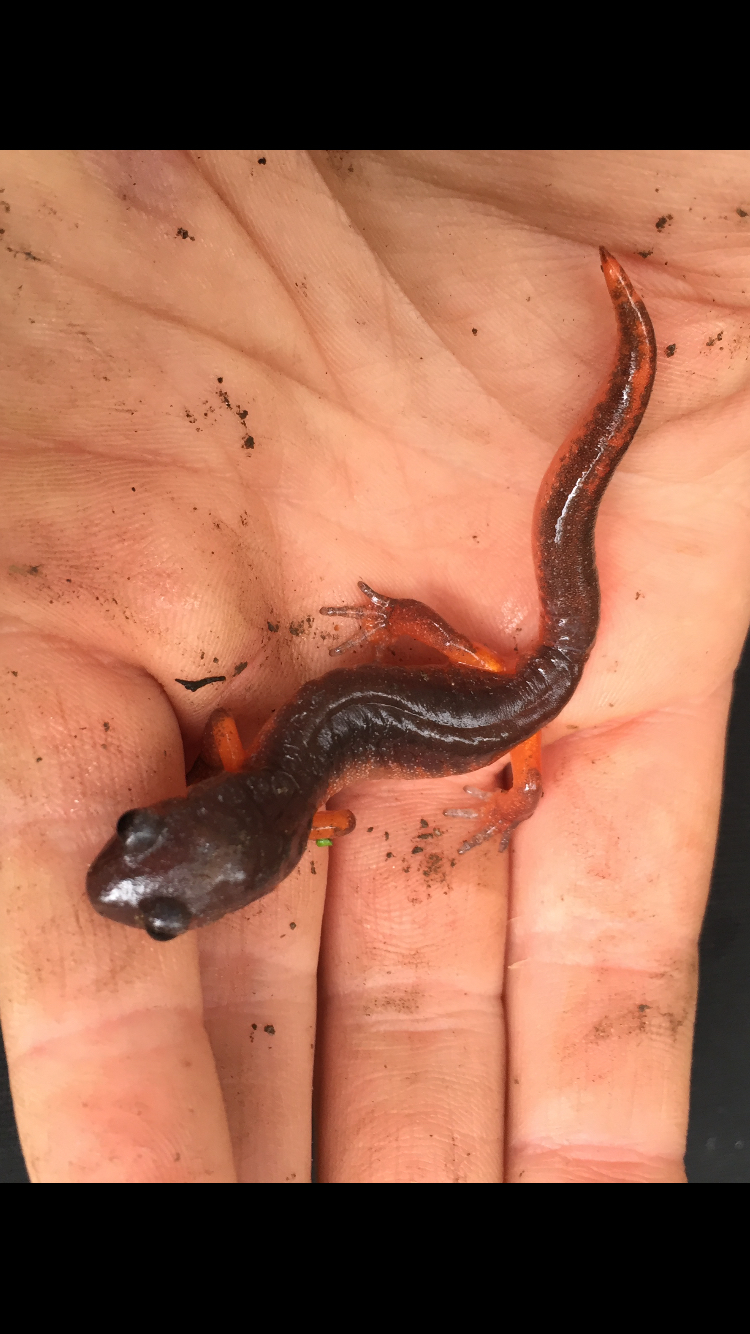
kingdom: Animalia
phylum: Chordata
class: Amphibia
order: Caudata
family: Plethodontidae
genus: Ensatina
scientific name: Ensatina eschscholtzii
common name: Ensatina
